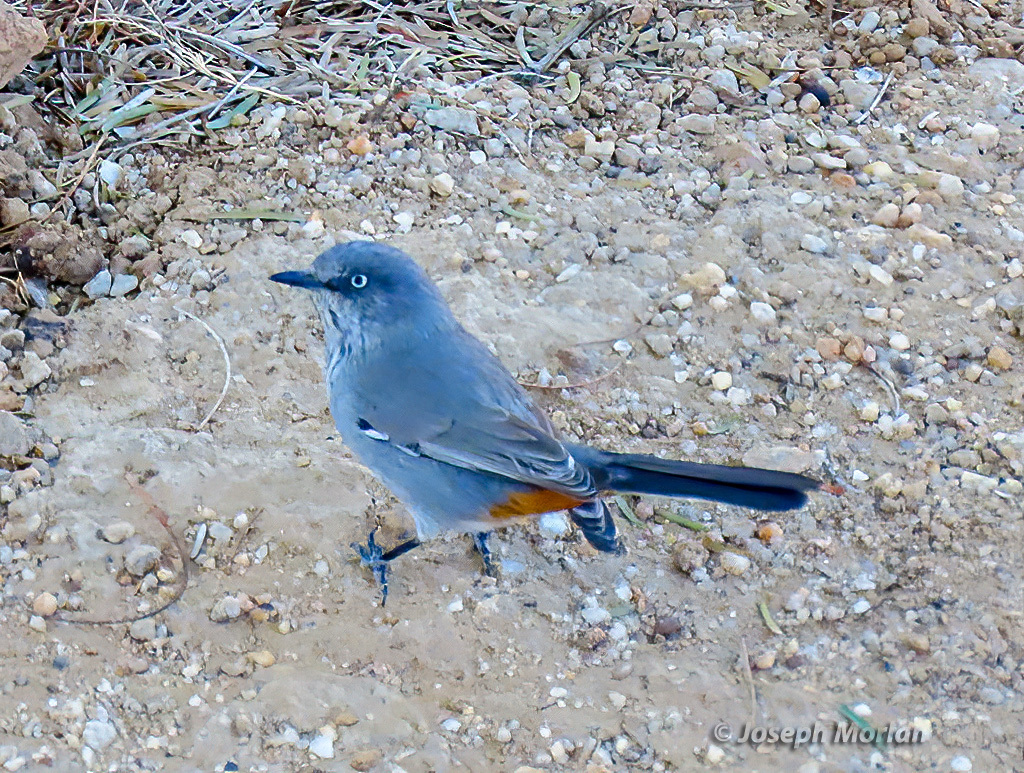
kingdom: Animalia
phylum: Chordata
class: Aves
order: Passeriformes
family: Sylviidae
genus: Curruca
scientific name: Curruca subcoerulea
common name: Chestnut-vented warbler
